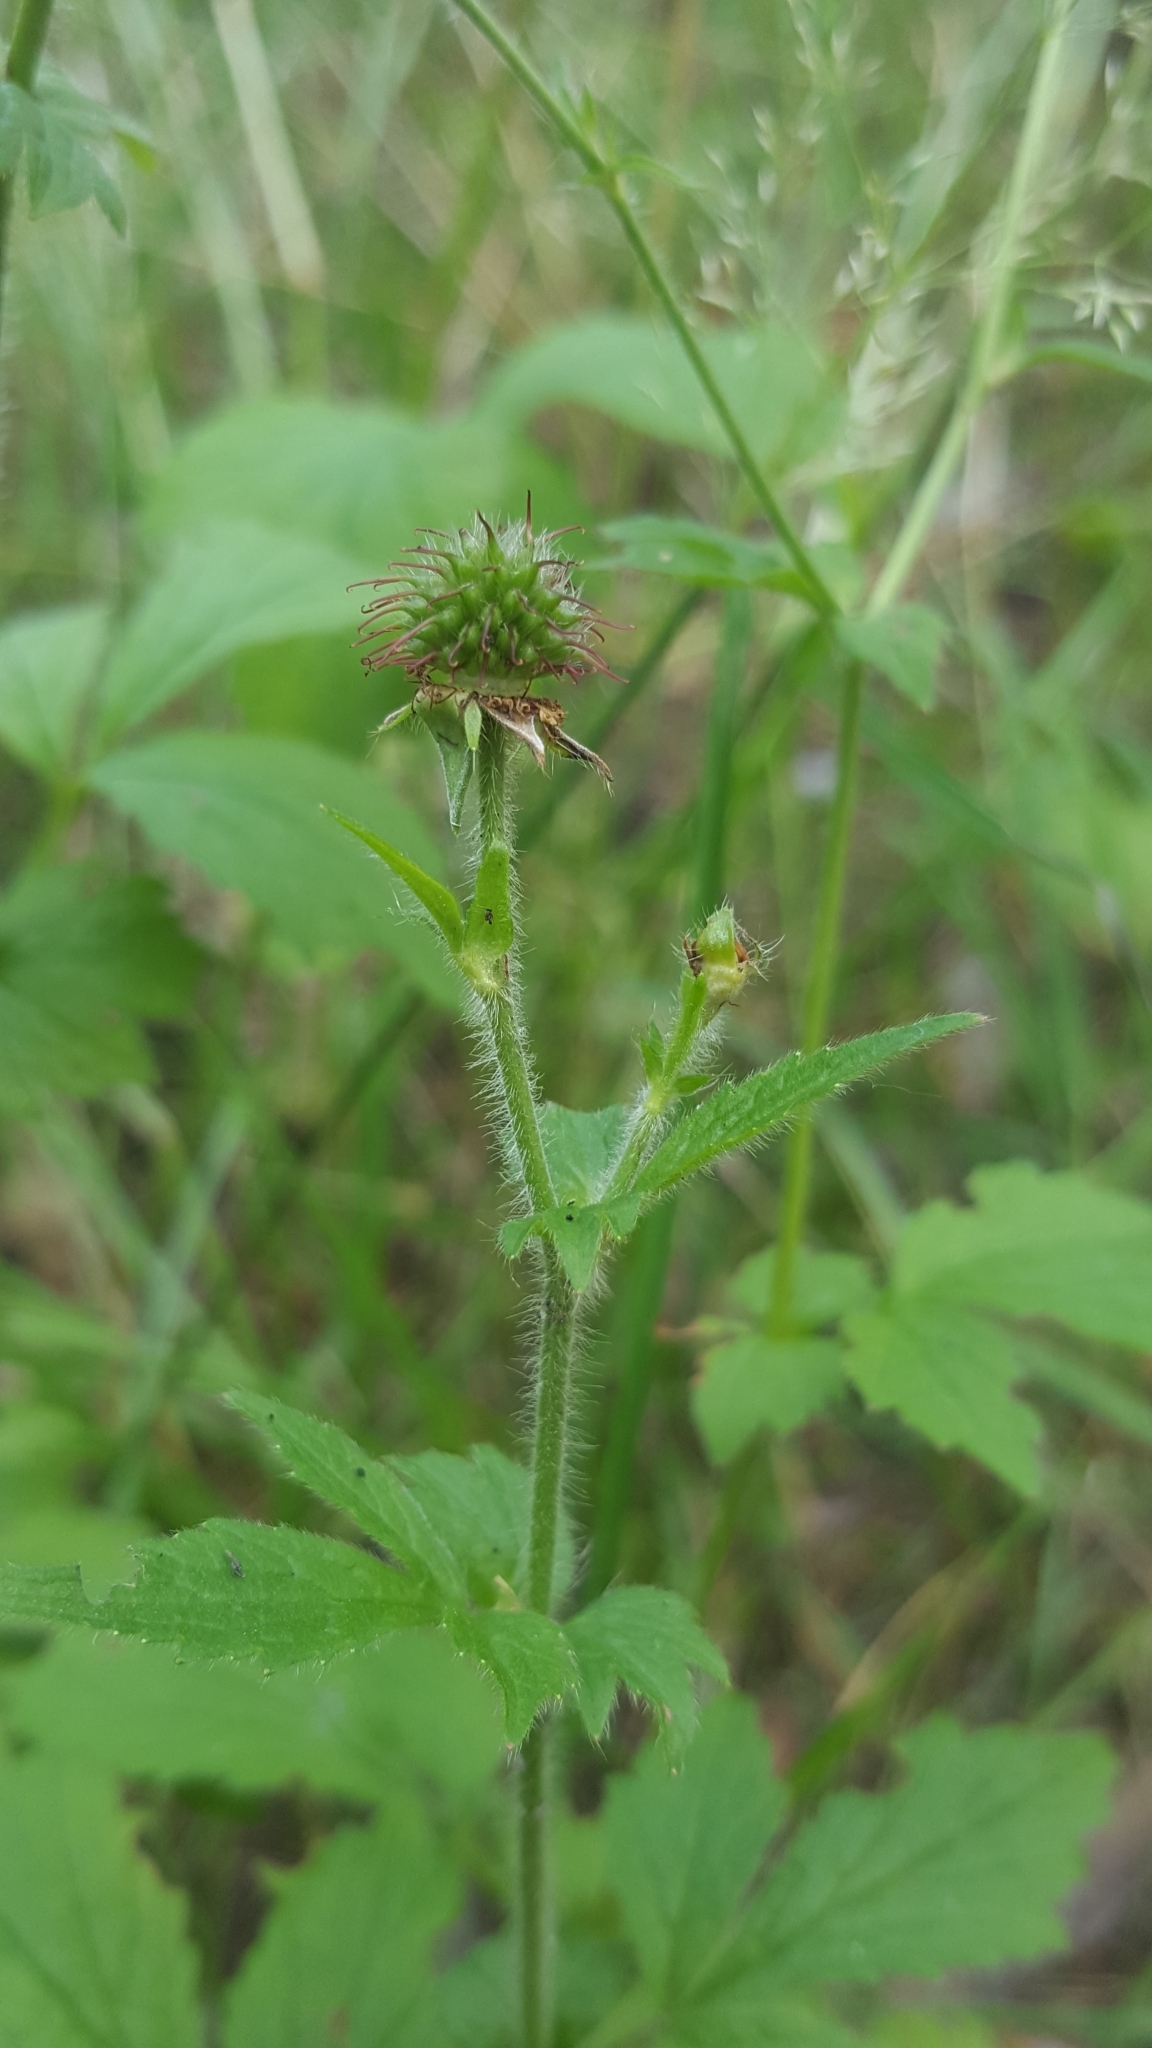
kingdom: Plantae
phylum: Tracheophyta
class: Magnoliopsida
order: Rosales
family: Rosaceae
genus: Geum
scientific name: Geum urbanum
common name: Wood avens
